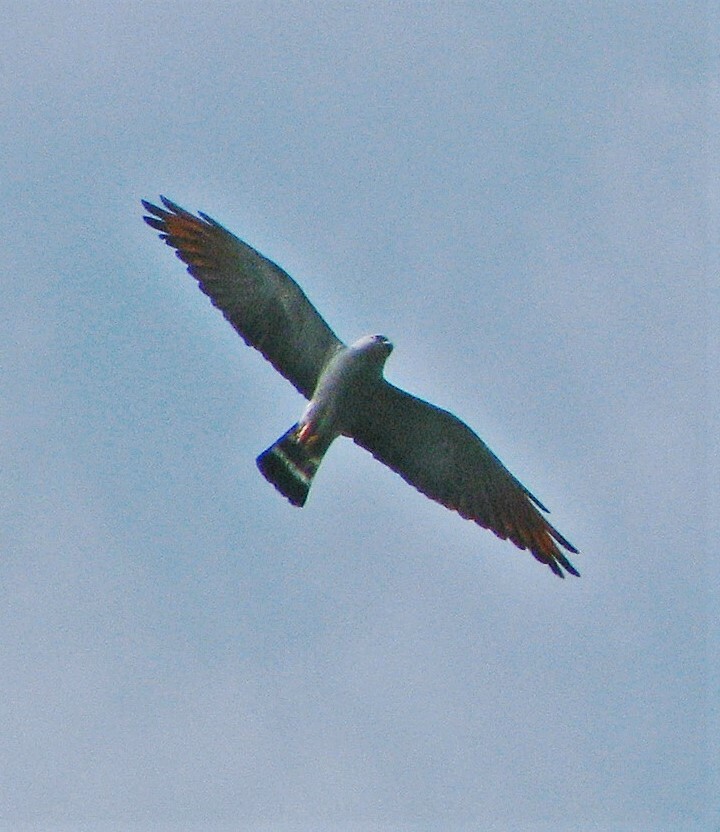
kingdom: Animalia
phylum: Chordata
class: Aves
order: Accipitriformes
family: Accipitridae
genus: Ictinia
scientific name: Ictinia plumbea
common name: Plumbeous kite
